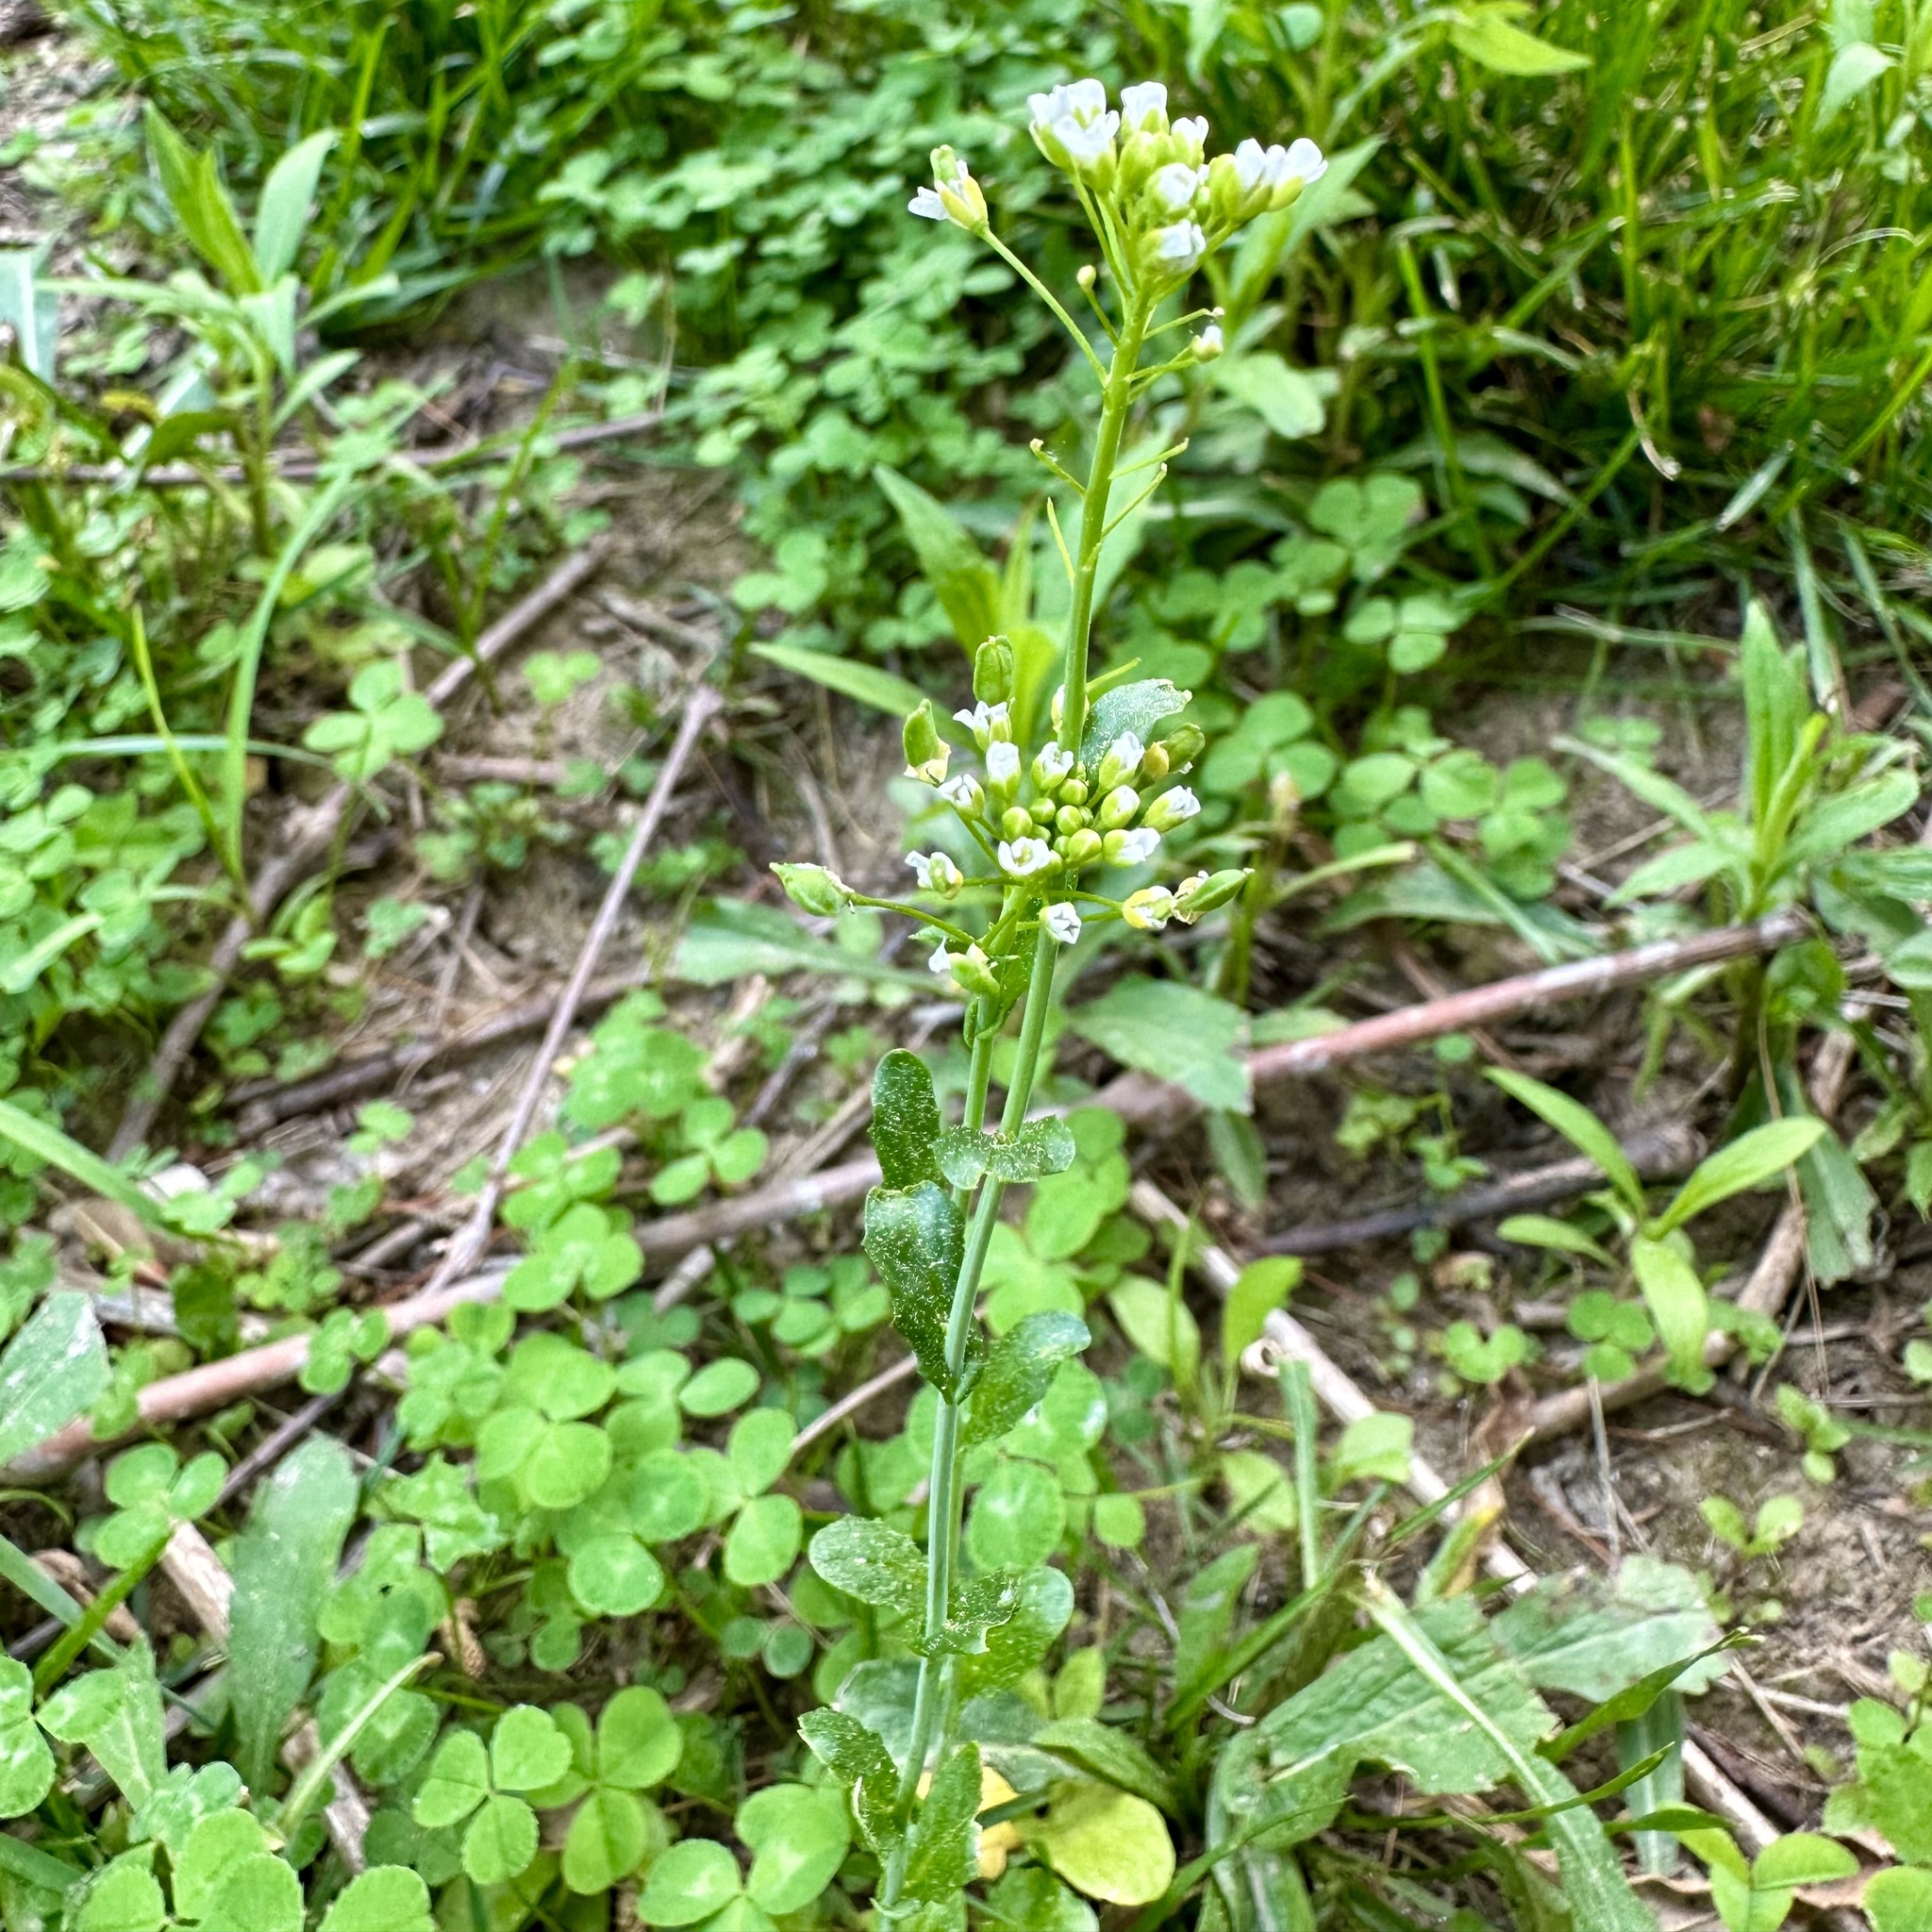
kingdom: Plantae
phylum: Tracheophyta
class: Magnoliopsida
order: Brassicales
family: Brassicaceae
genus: Mummenhoffia
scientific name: Mummenhoffia alliacea
